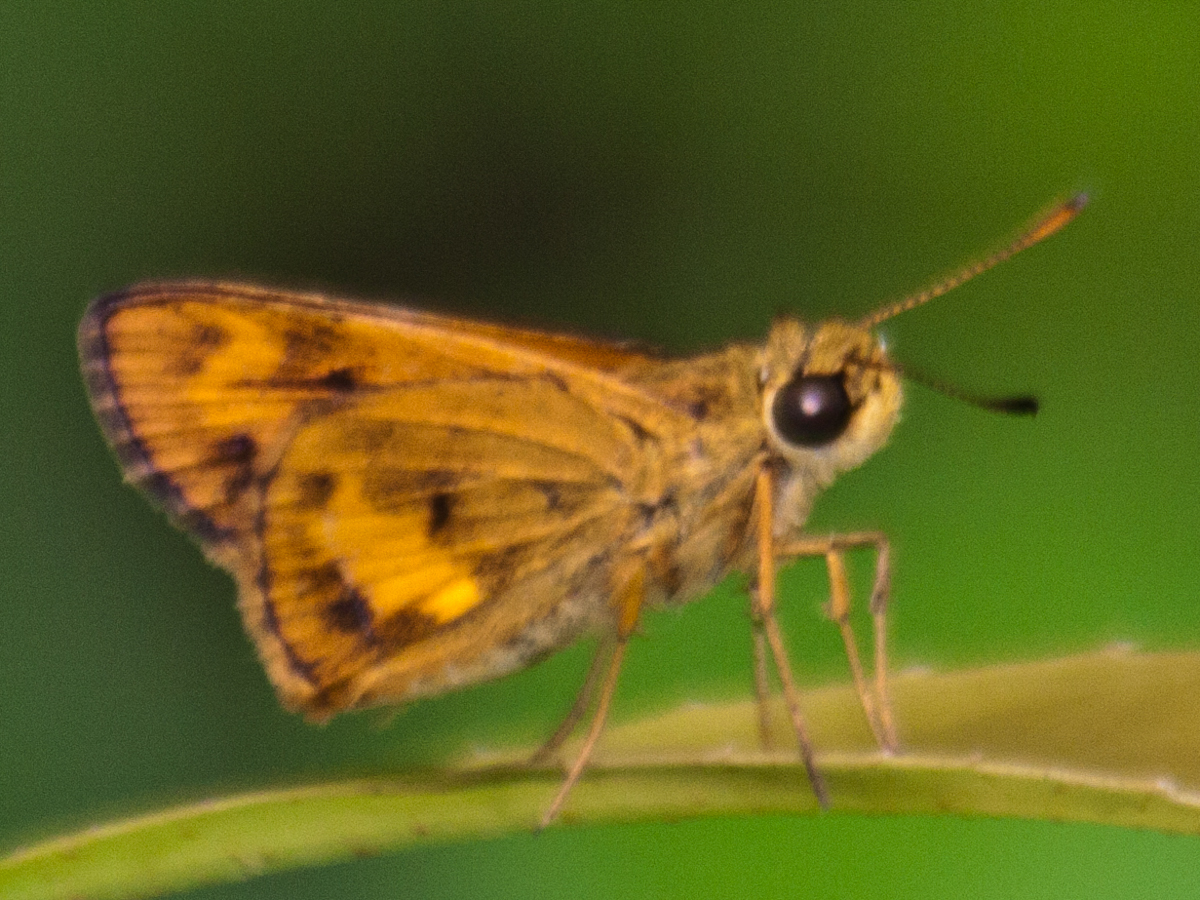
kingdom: Animalia
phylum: Arthropoda
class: Insecta
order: Lepidoptera
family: Hesperiidae
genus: Oriens
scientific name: Oriens gola
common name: Common dartlet
